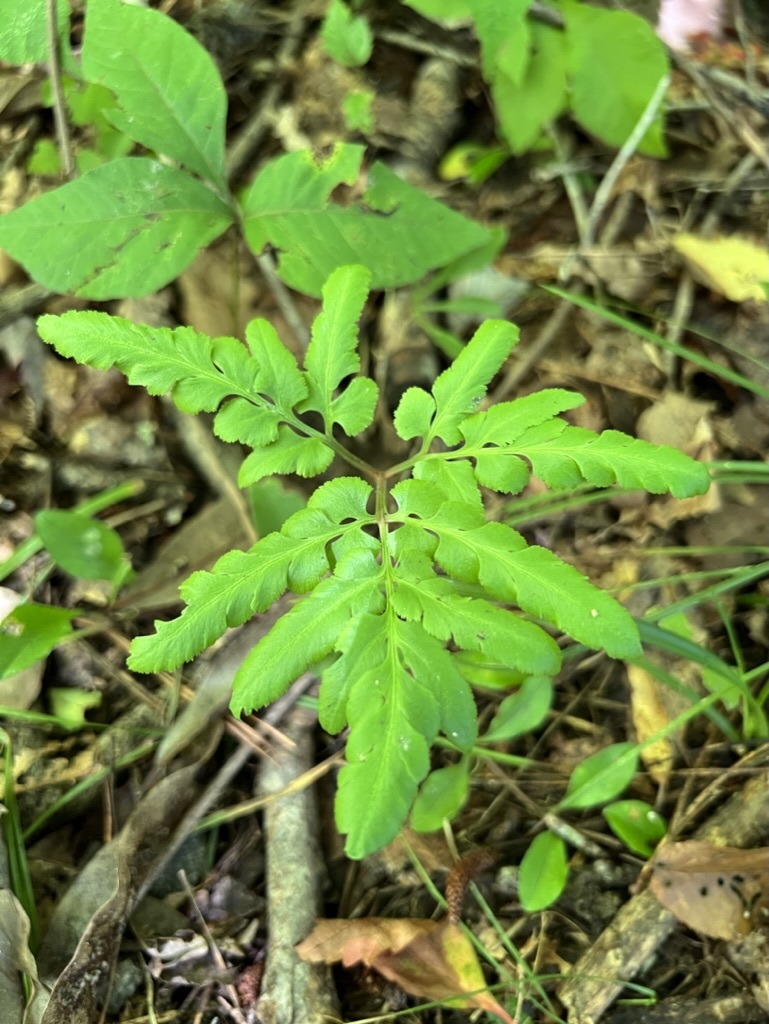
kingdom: Plantae
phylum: Tracheophyta
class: Polypodiopsida
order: Ophioglossales
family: Ophioglossaceae
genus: Sceptridium
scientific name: Sceptridium biternatum
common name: Sparse-lobed grapefern
